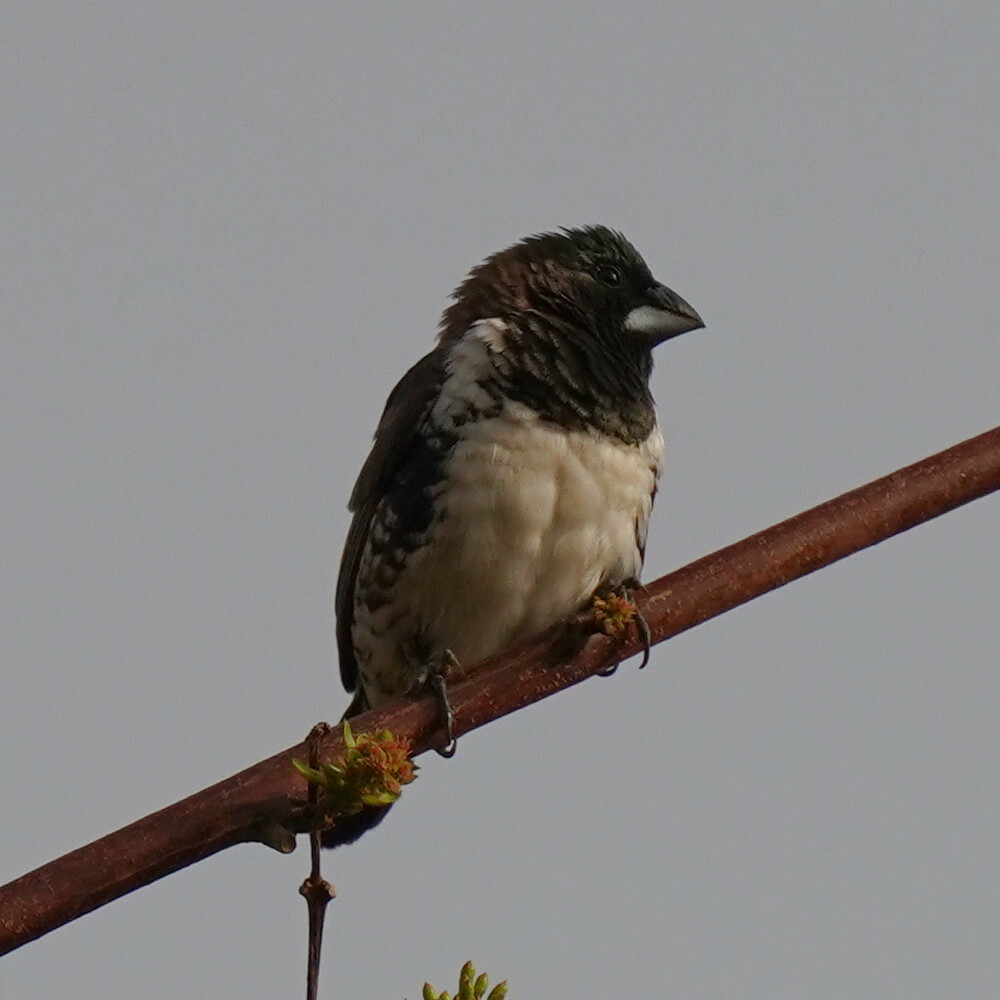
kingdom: Animalia
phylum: Chordata
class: Aves
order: Passeriformes
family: Estrildidae
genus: Lonchura
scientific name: Lonchura cucullata
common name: Bronze mannikin
